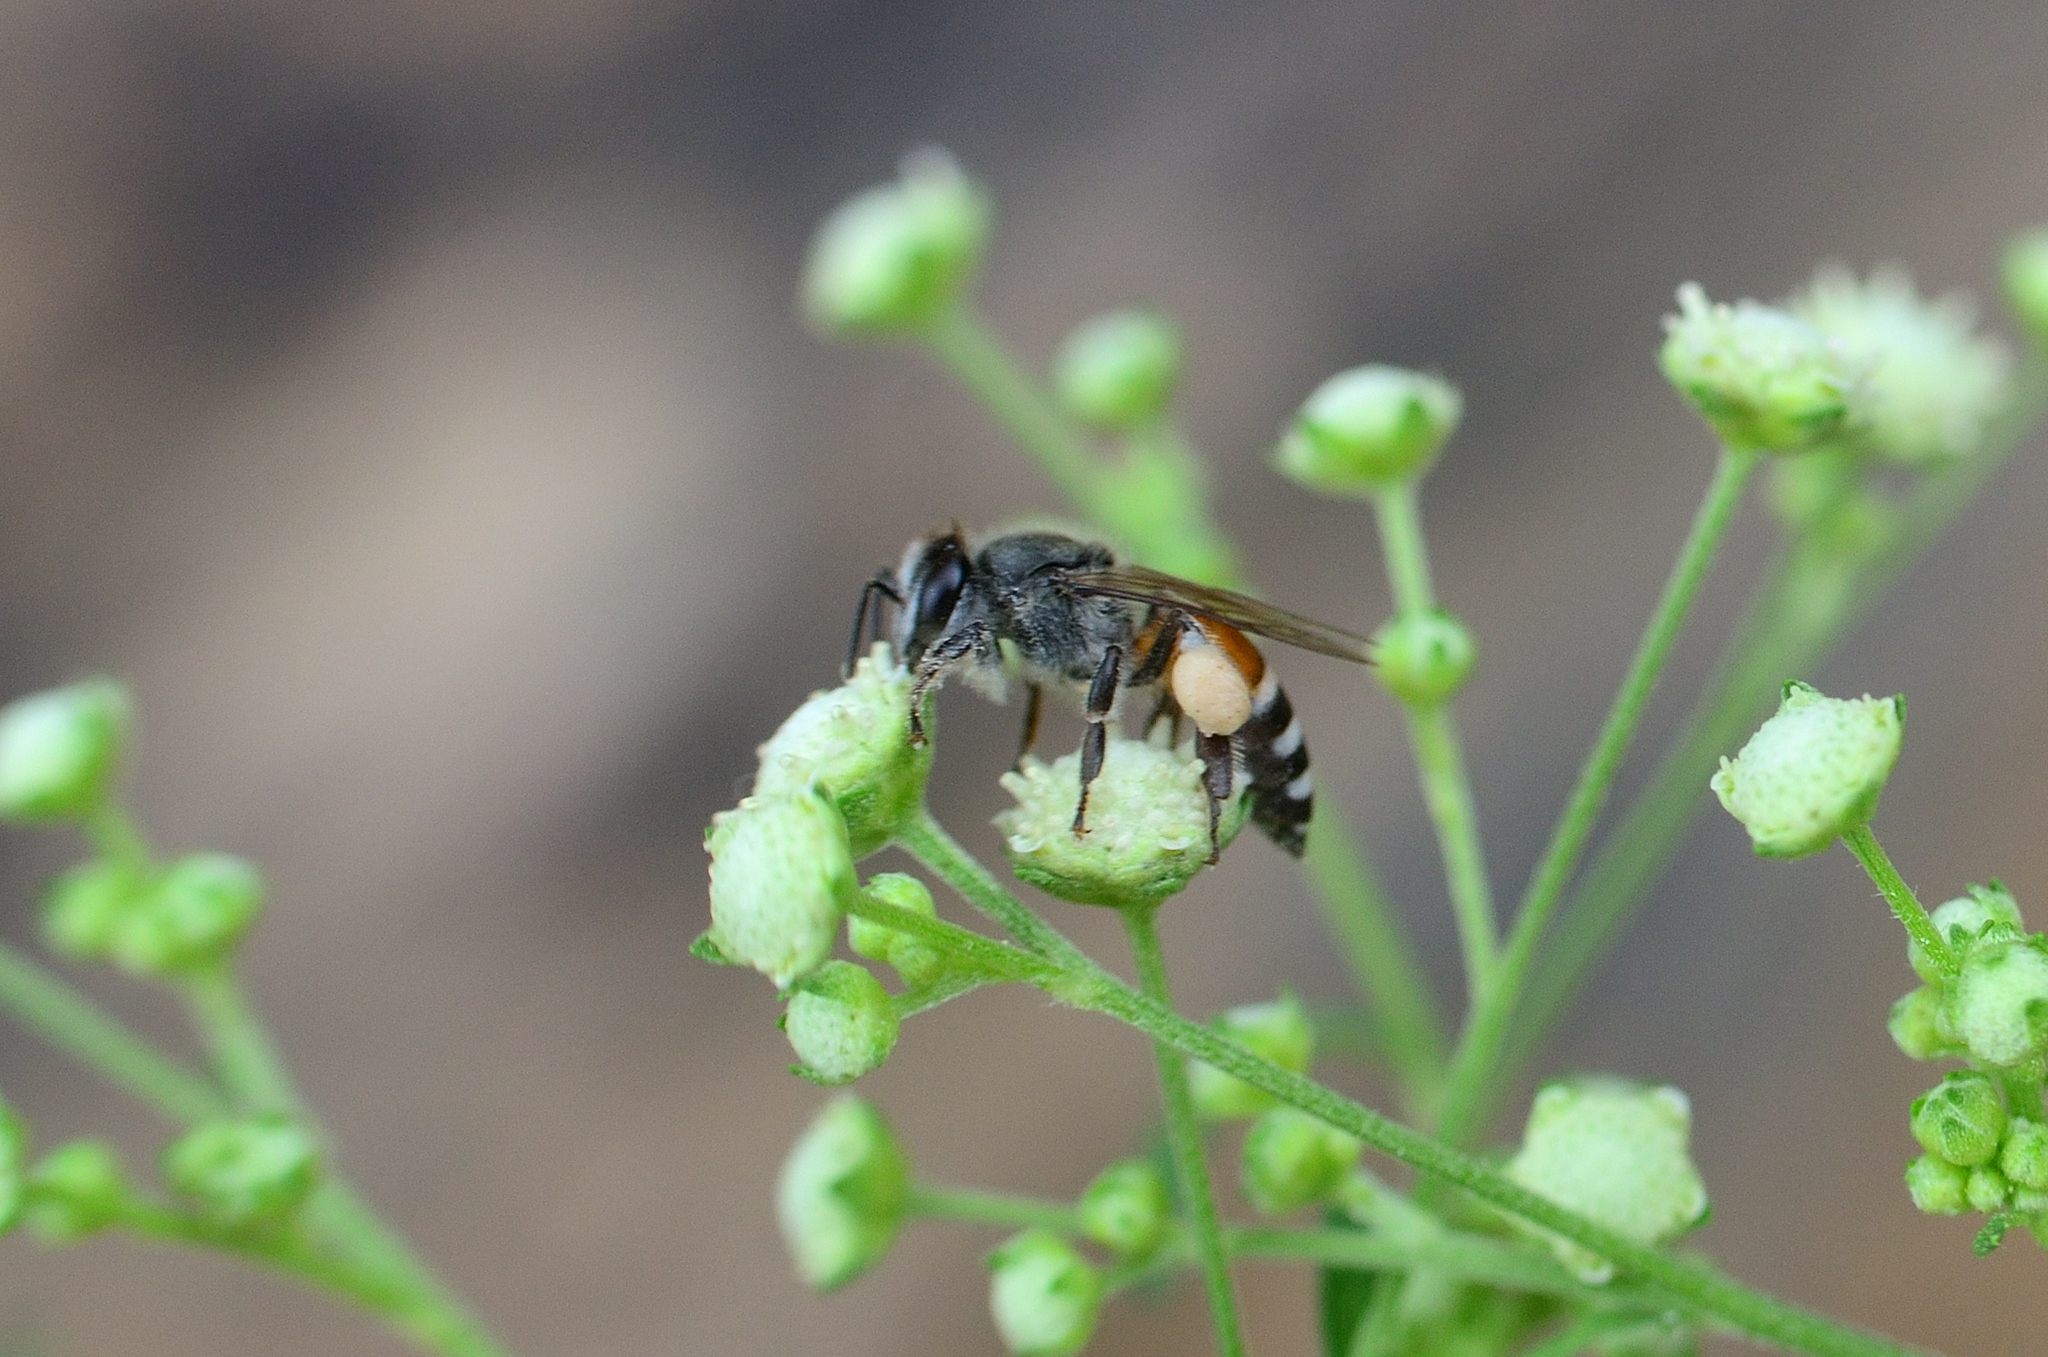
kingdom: Animalia
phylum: Arthropoda
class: Insecta
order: Hymenoptera
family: Apidae
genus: Apis
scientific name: Apis florea
